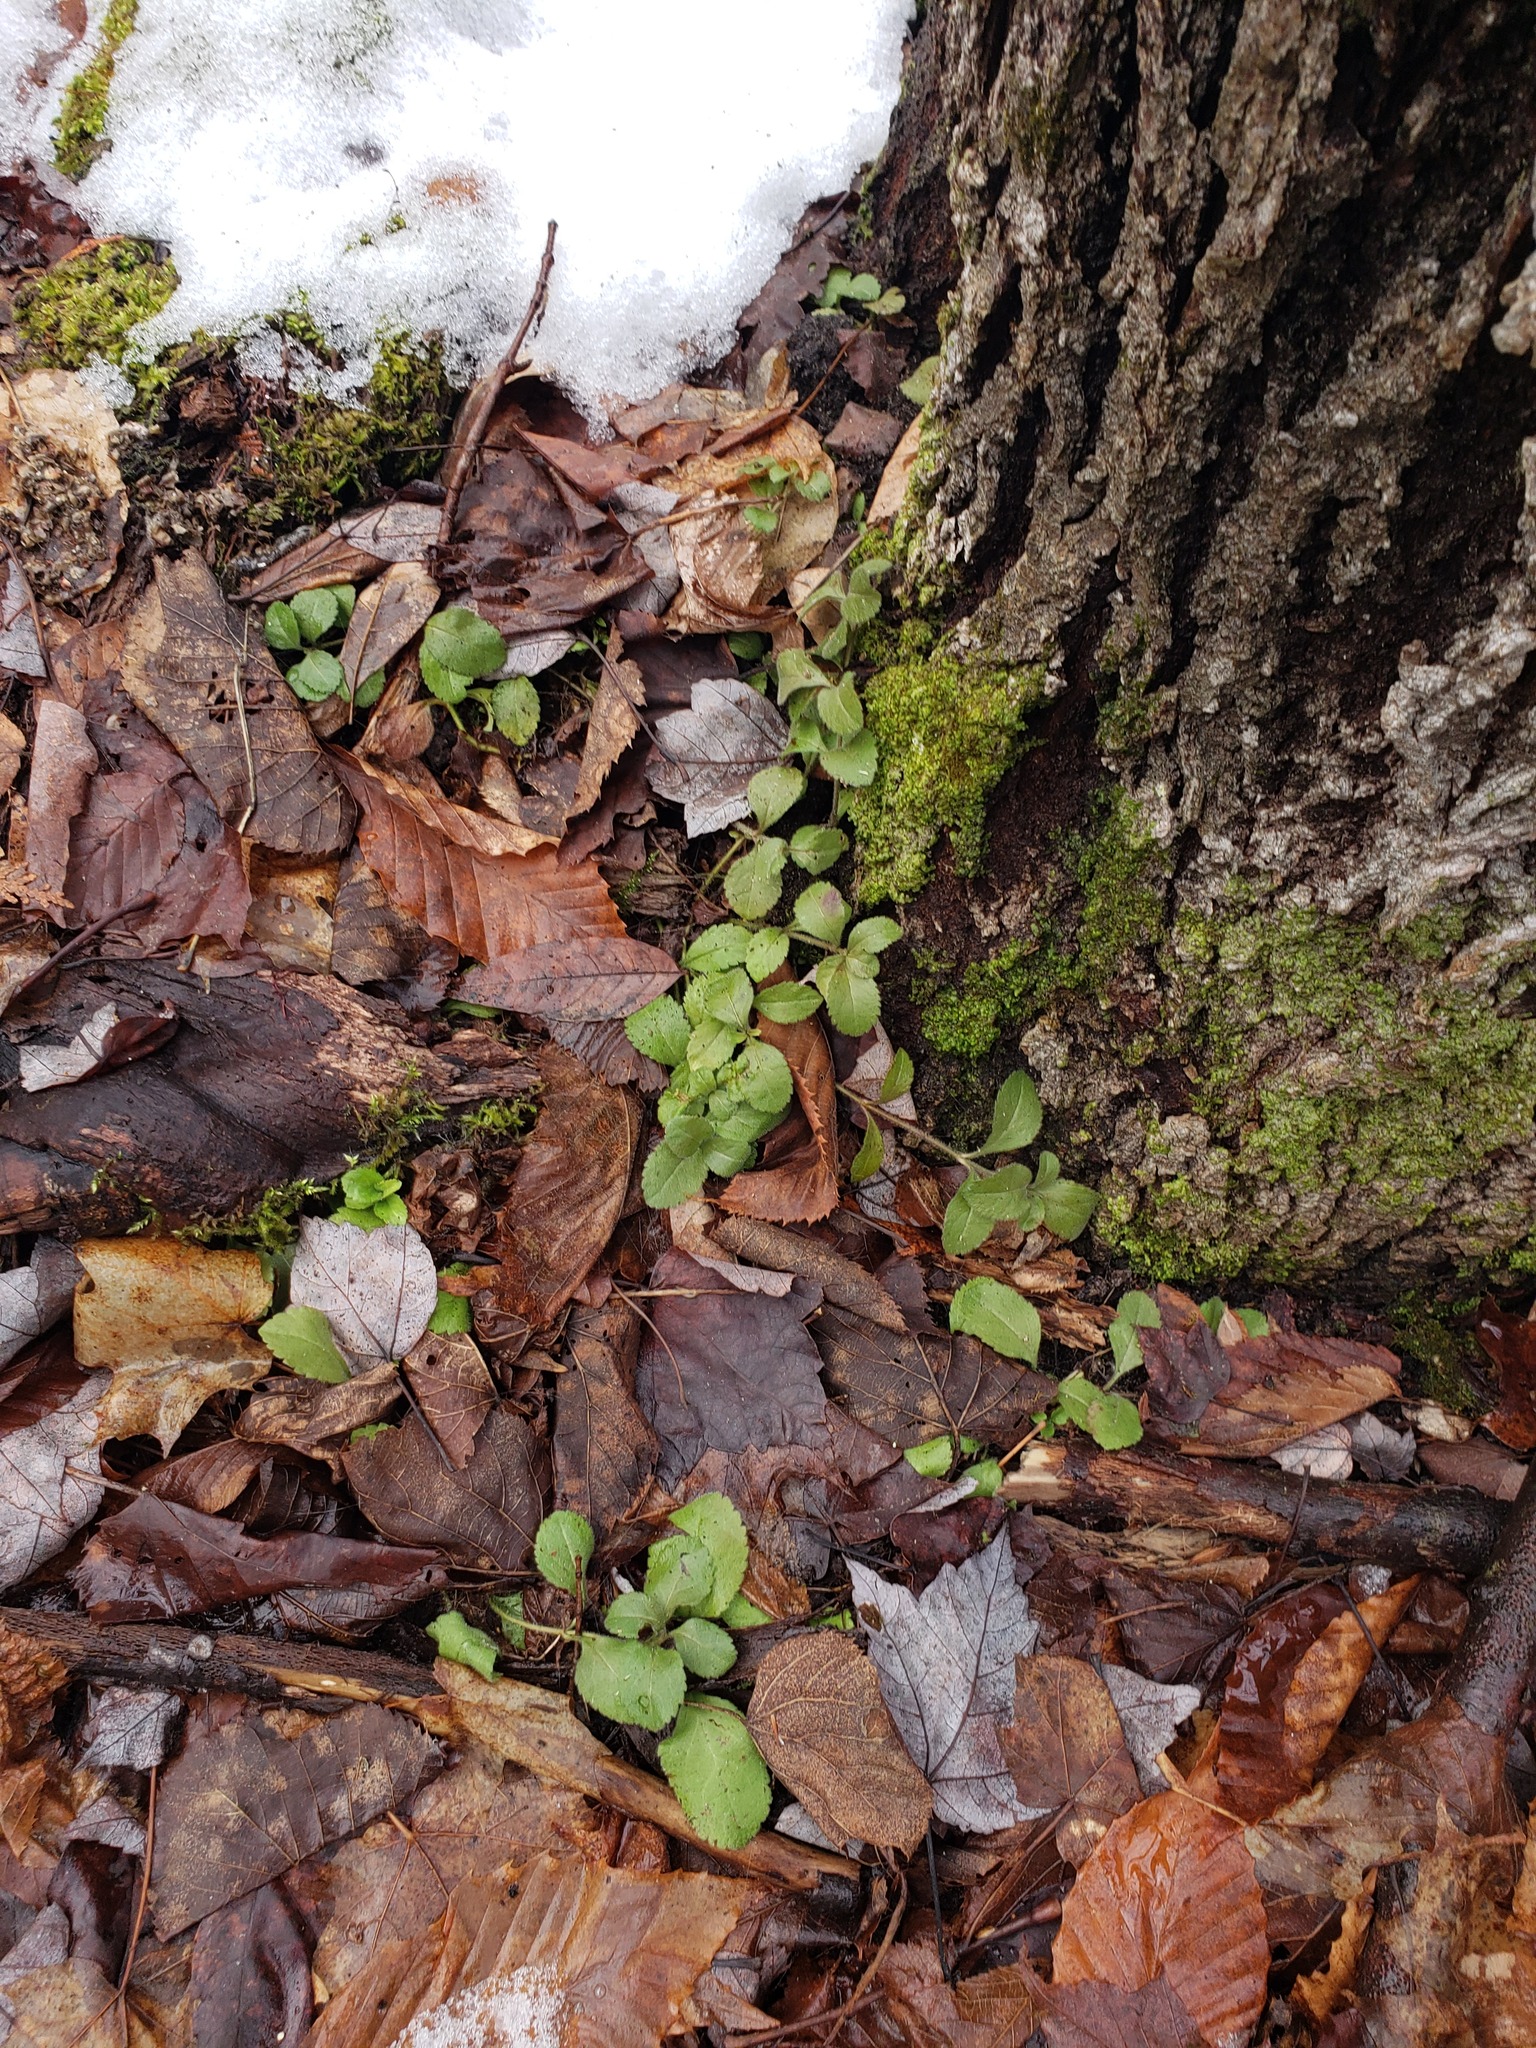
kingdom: Plantae
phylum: Tracheophyta
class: Magnoliopsida
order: Lamiales
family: Plantaginaceae
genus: Veronica
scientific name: Veronica officinalis
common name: Common speedwell
